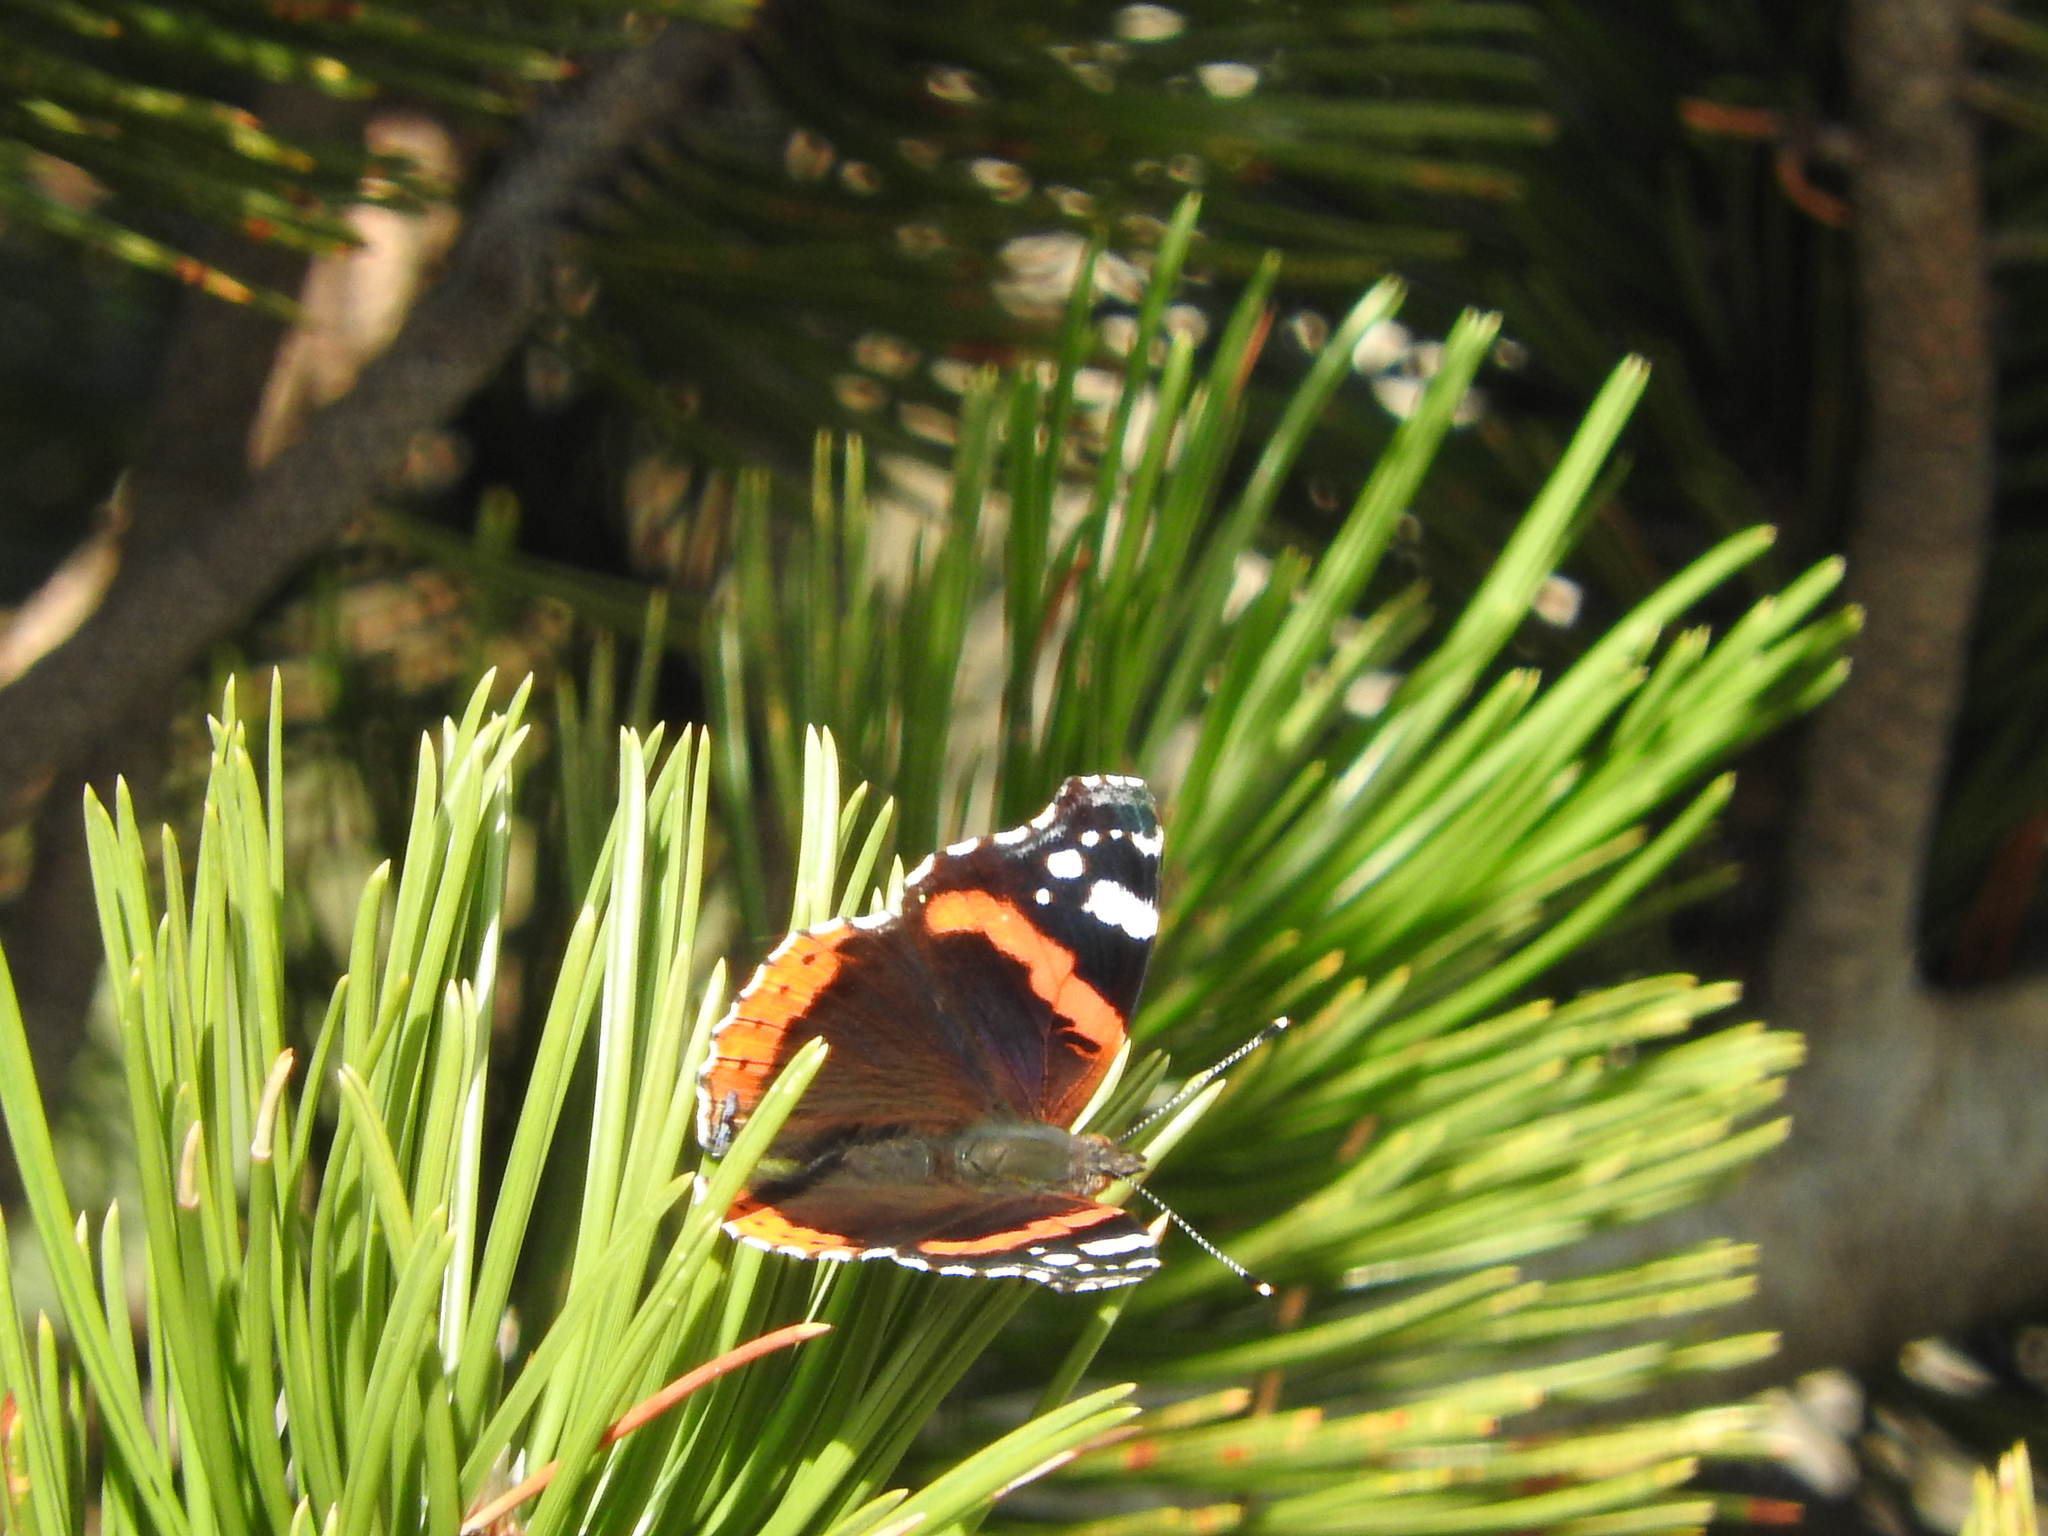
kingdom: Animalia
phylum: Arthropoda
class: Insecta
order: Lepidoptera
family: Nymphalidae
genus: Vanessa
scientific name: Vanessa atalanta
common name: Red admiral
